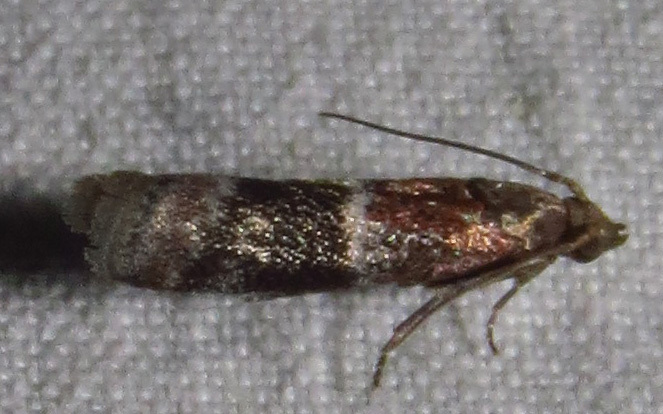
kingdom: Animalia
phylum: Arthropoda
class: Insecta
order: Lepidoptera
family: Pyralidae
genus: Moodna
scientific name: Moodna ostrinella
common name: Darker moodna moth
